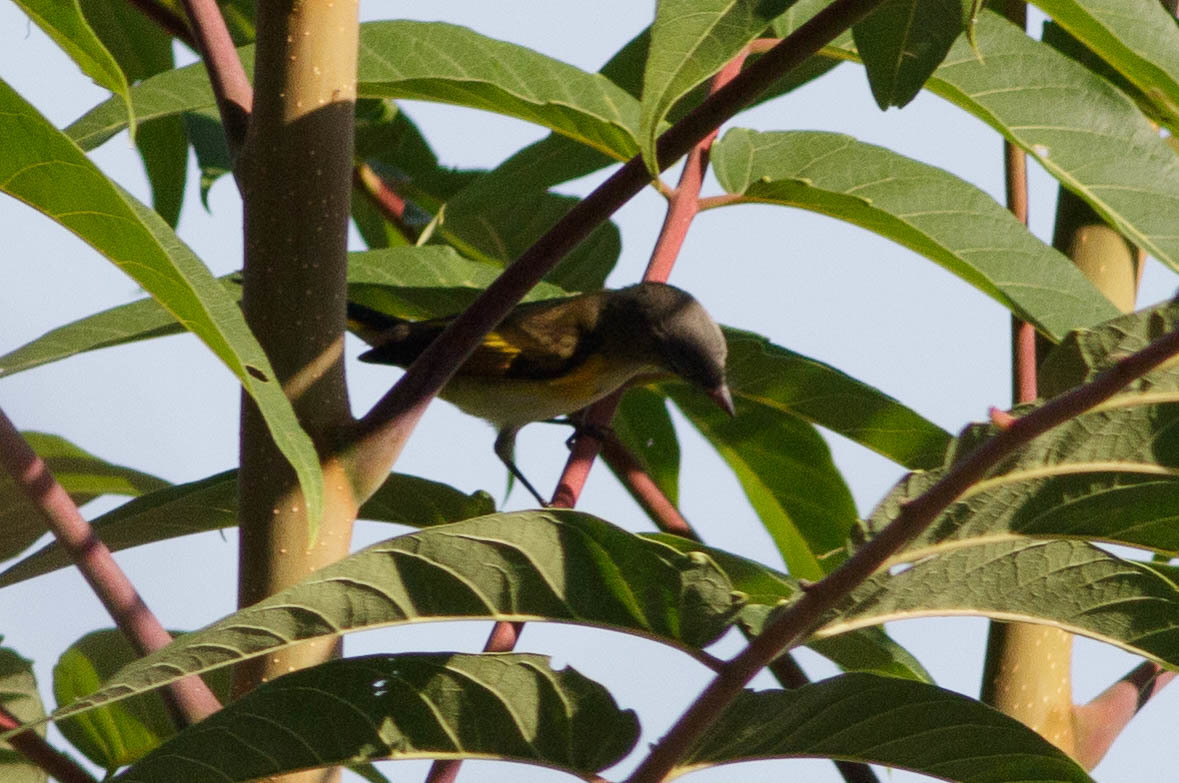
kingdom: Animalia
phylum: Chordata
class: Aves
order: Passeriformes
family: Parulidae
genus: Setophaga
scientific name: Setophaga ruticilla
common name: American redstart
